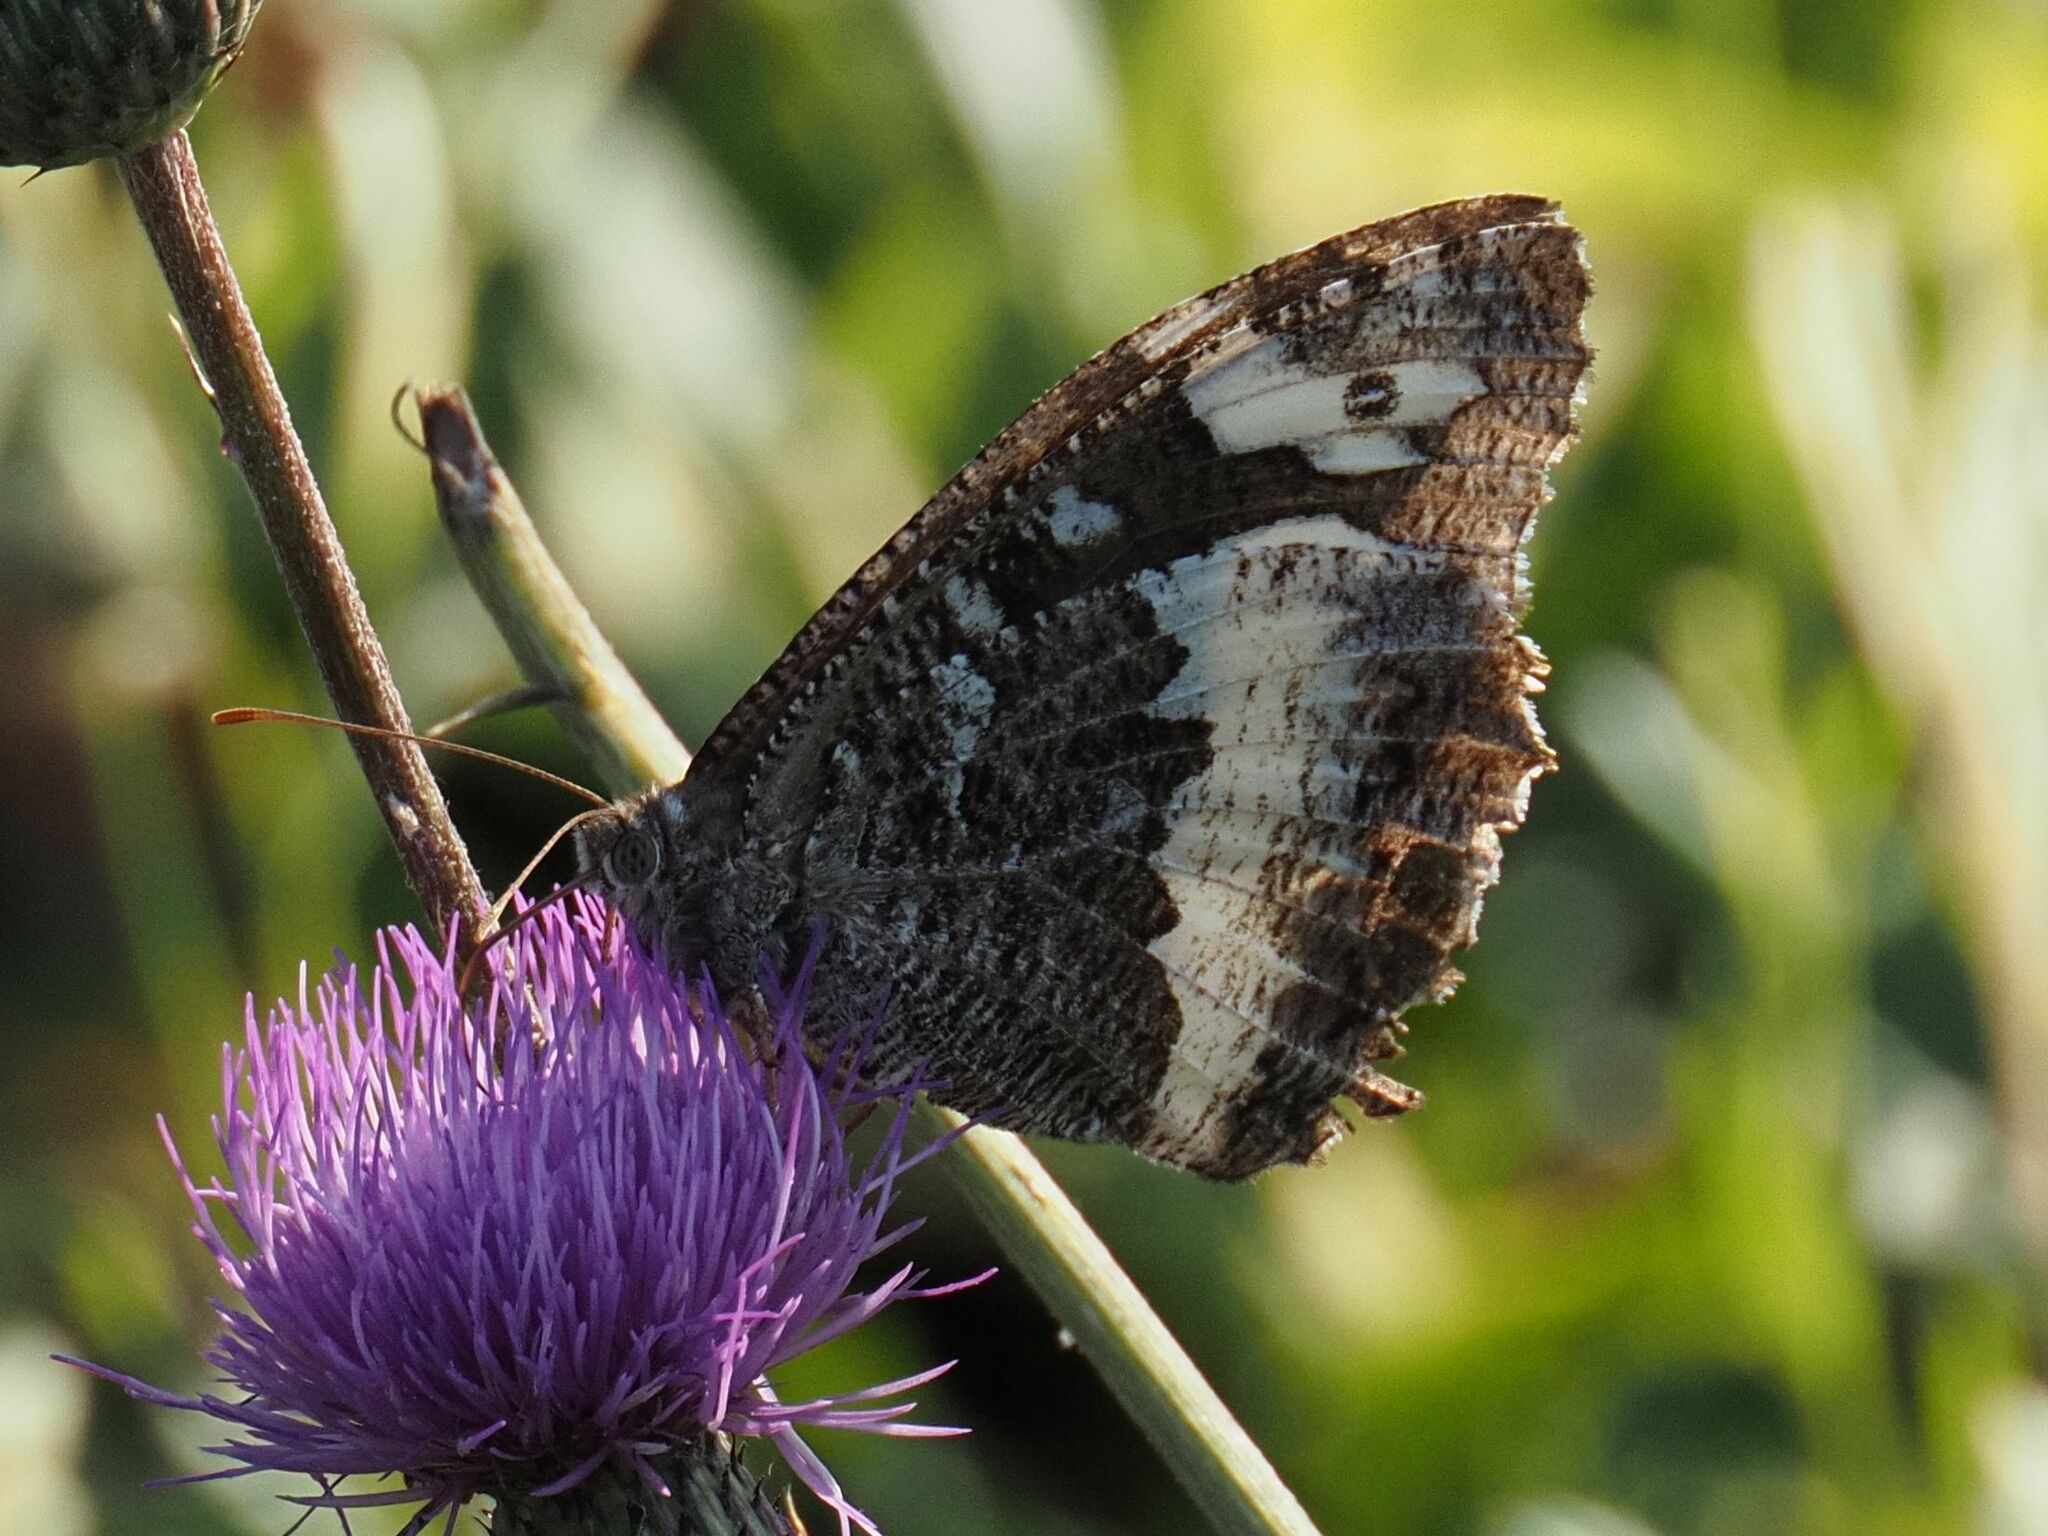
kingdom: Animalia
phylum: Arthropoda
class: Insecta
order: Lepidoptera
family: Lycaenidae
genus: Loweia
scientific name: Loweia tityrus
